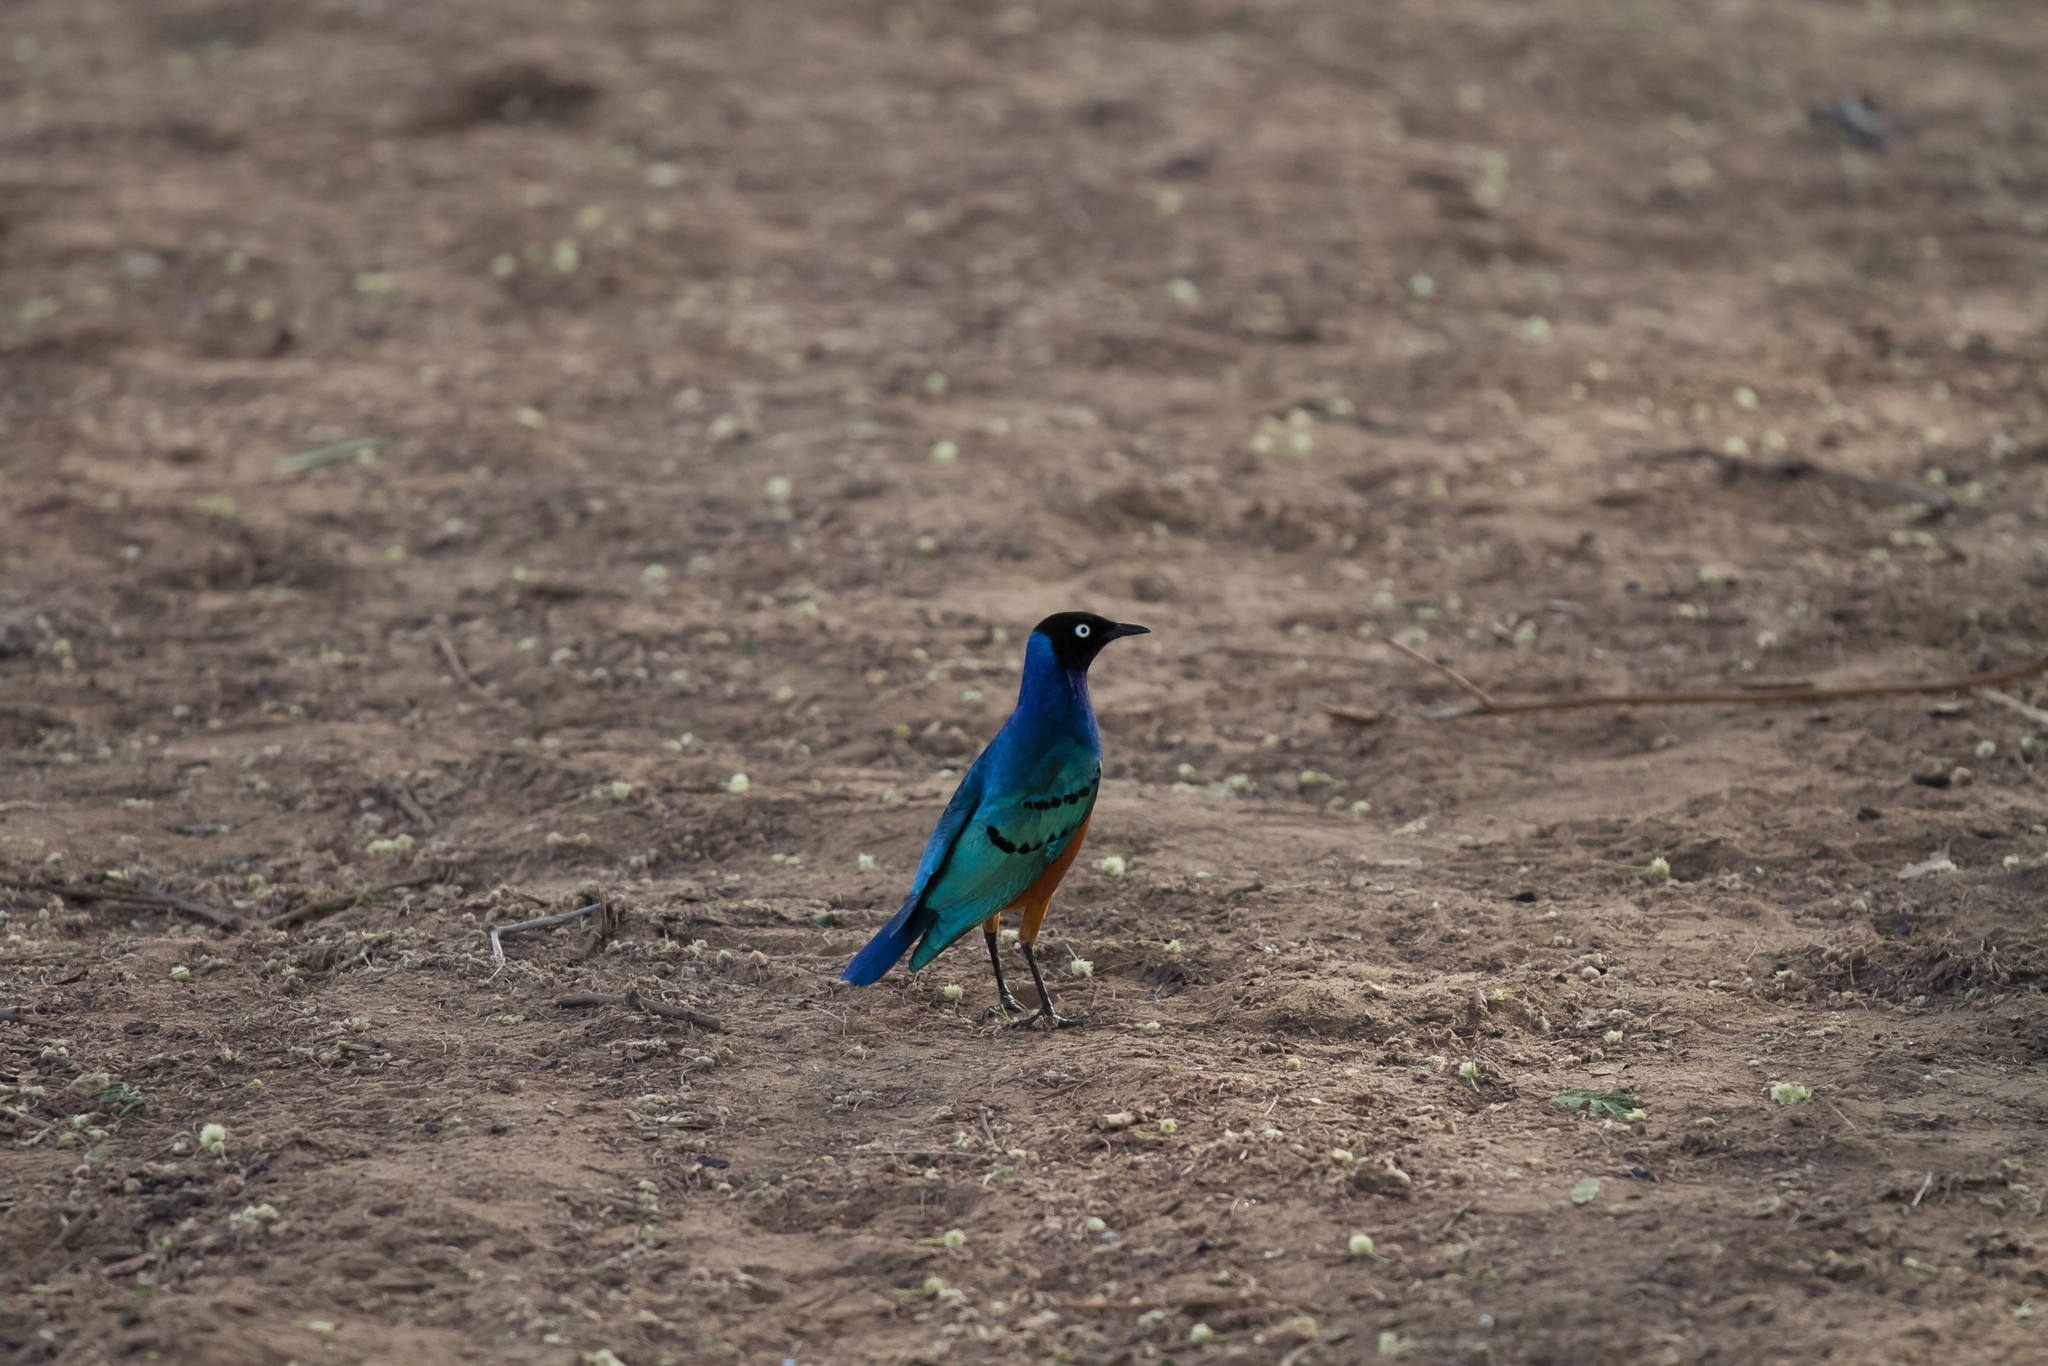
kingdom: Animalia
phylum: Chordata
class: Aves
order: Passeriformes
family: Sturnidae
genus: Lamprotornis
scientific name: Lamprotornis superbus
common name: Superb starling
